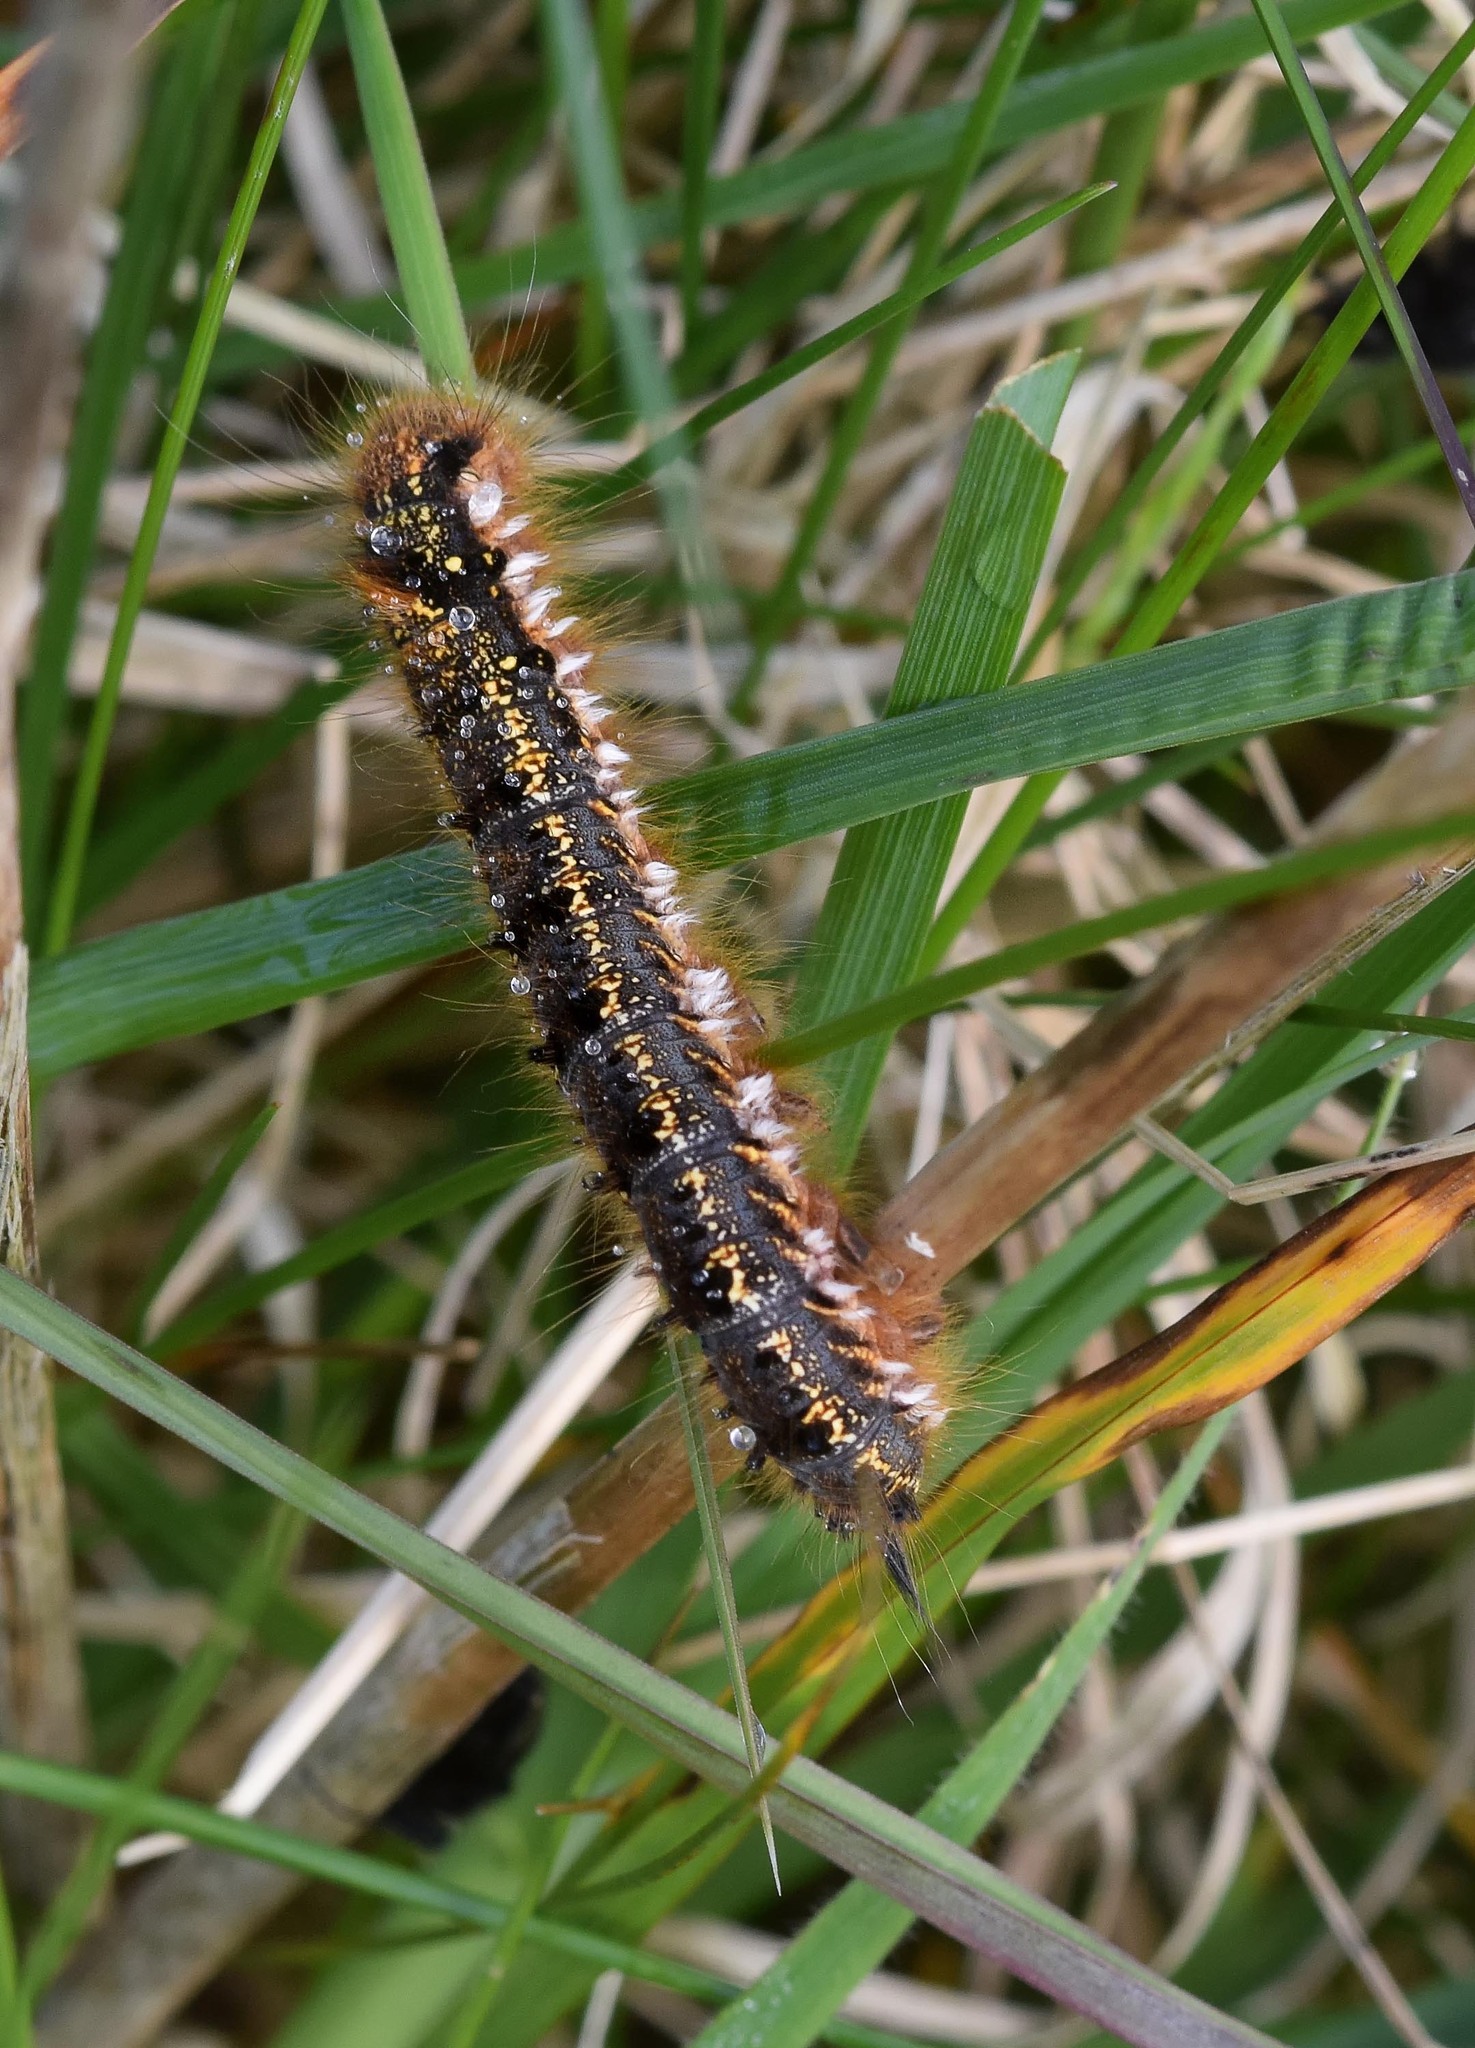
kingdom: Animalia
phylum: Arthropoda
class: Insecta
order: Lepidoptera
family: Lasiocampidae
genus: Euthrix
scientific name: Euthrix potatoria
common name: Drinker
